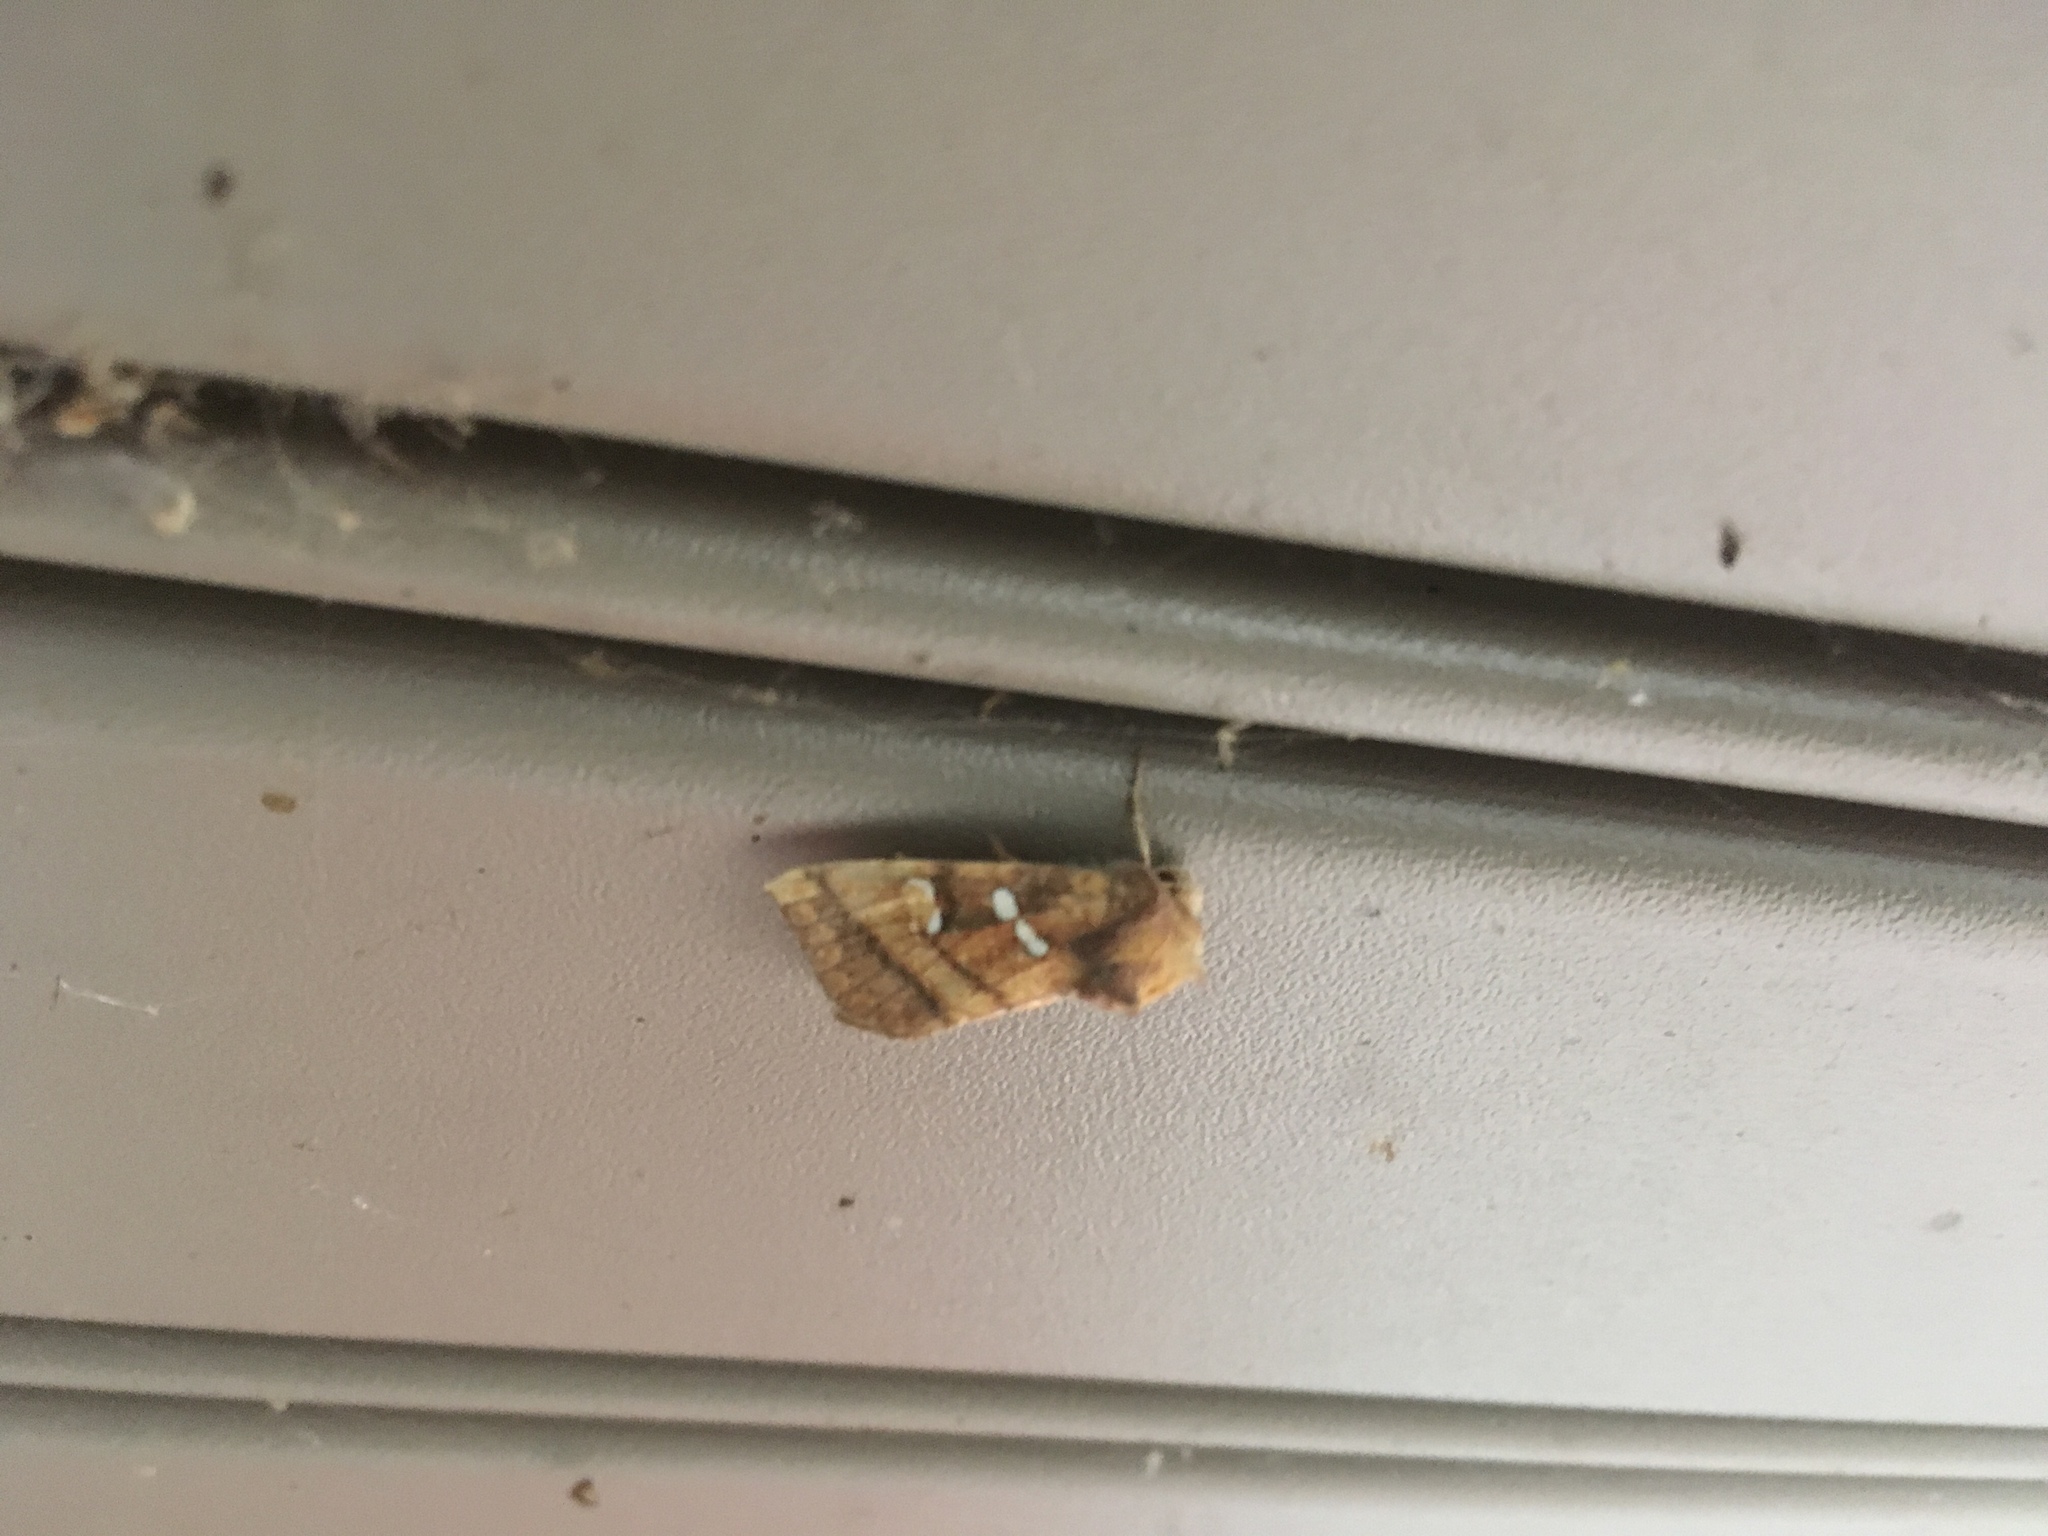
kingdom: Animalia
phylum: Arthropoda
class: Insecta
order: Lepidoptera
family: Noctuidae
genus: Papaipema
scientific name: Papaipema pterisii
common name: Bracken borer moth
